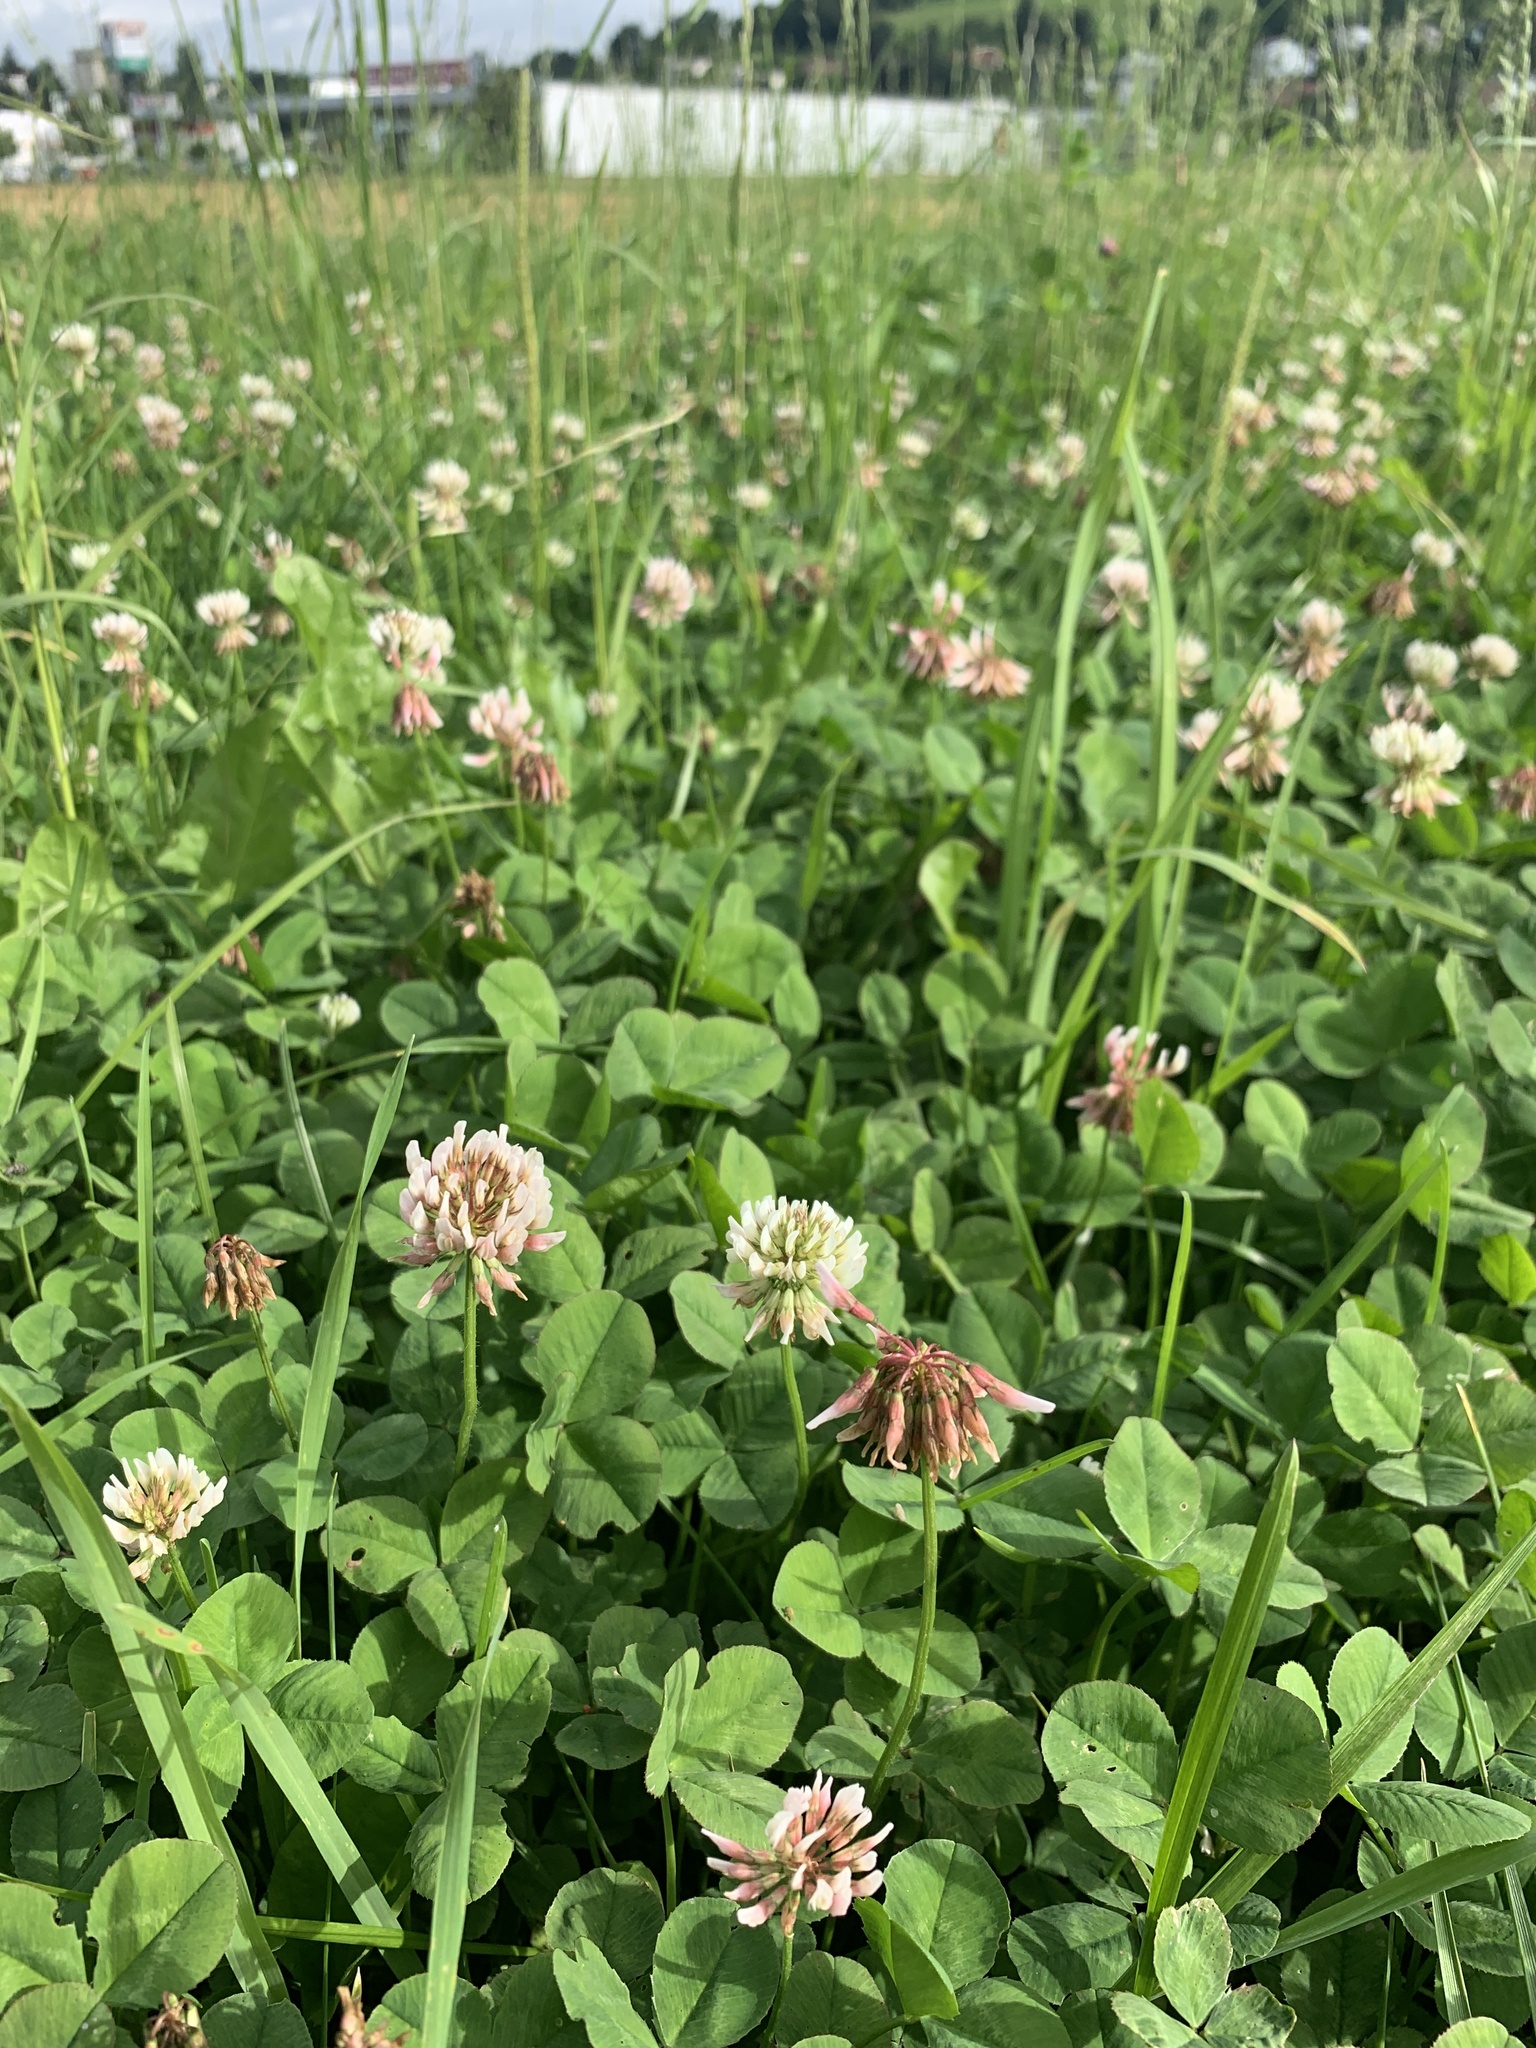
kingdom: Plantae
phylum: Tracheophyta
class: Magnoliopsida
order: Fabales
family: Fabaceae
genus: Trifolium
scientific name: Trifolium repens
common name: White clover
